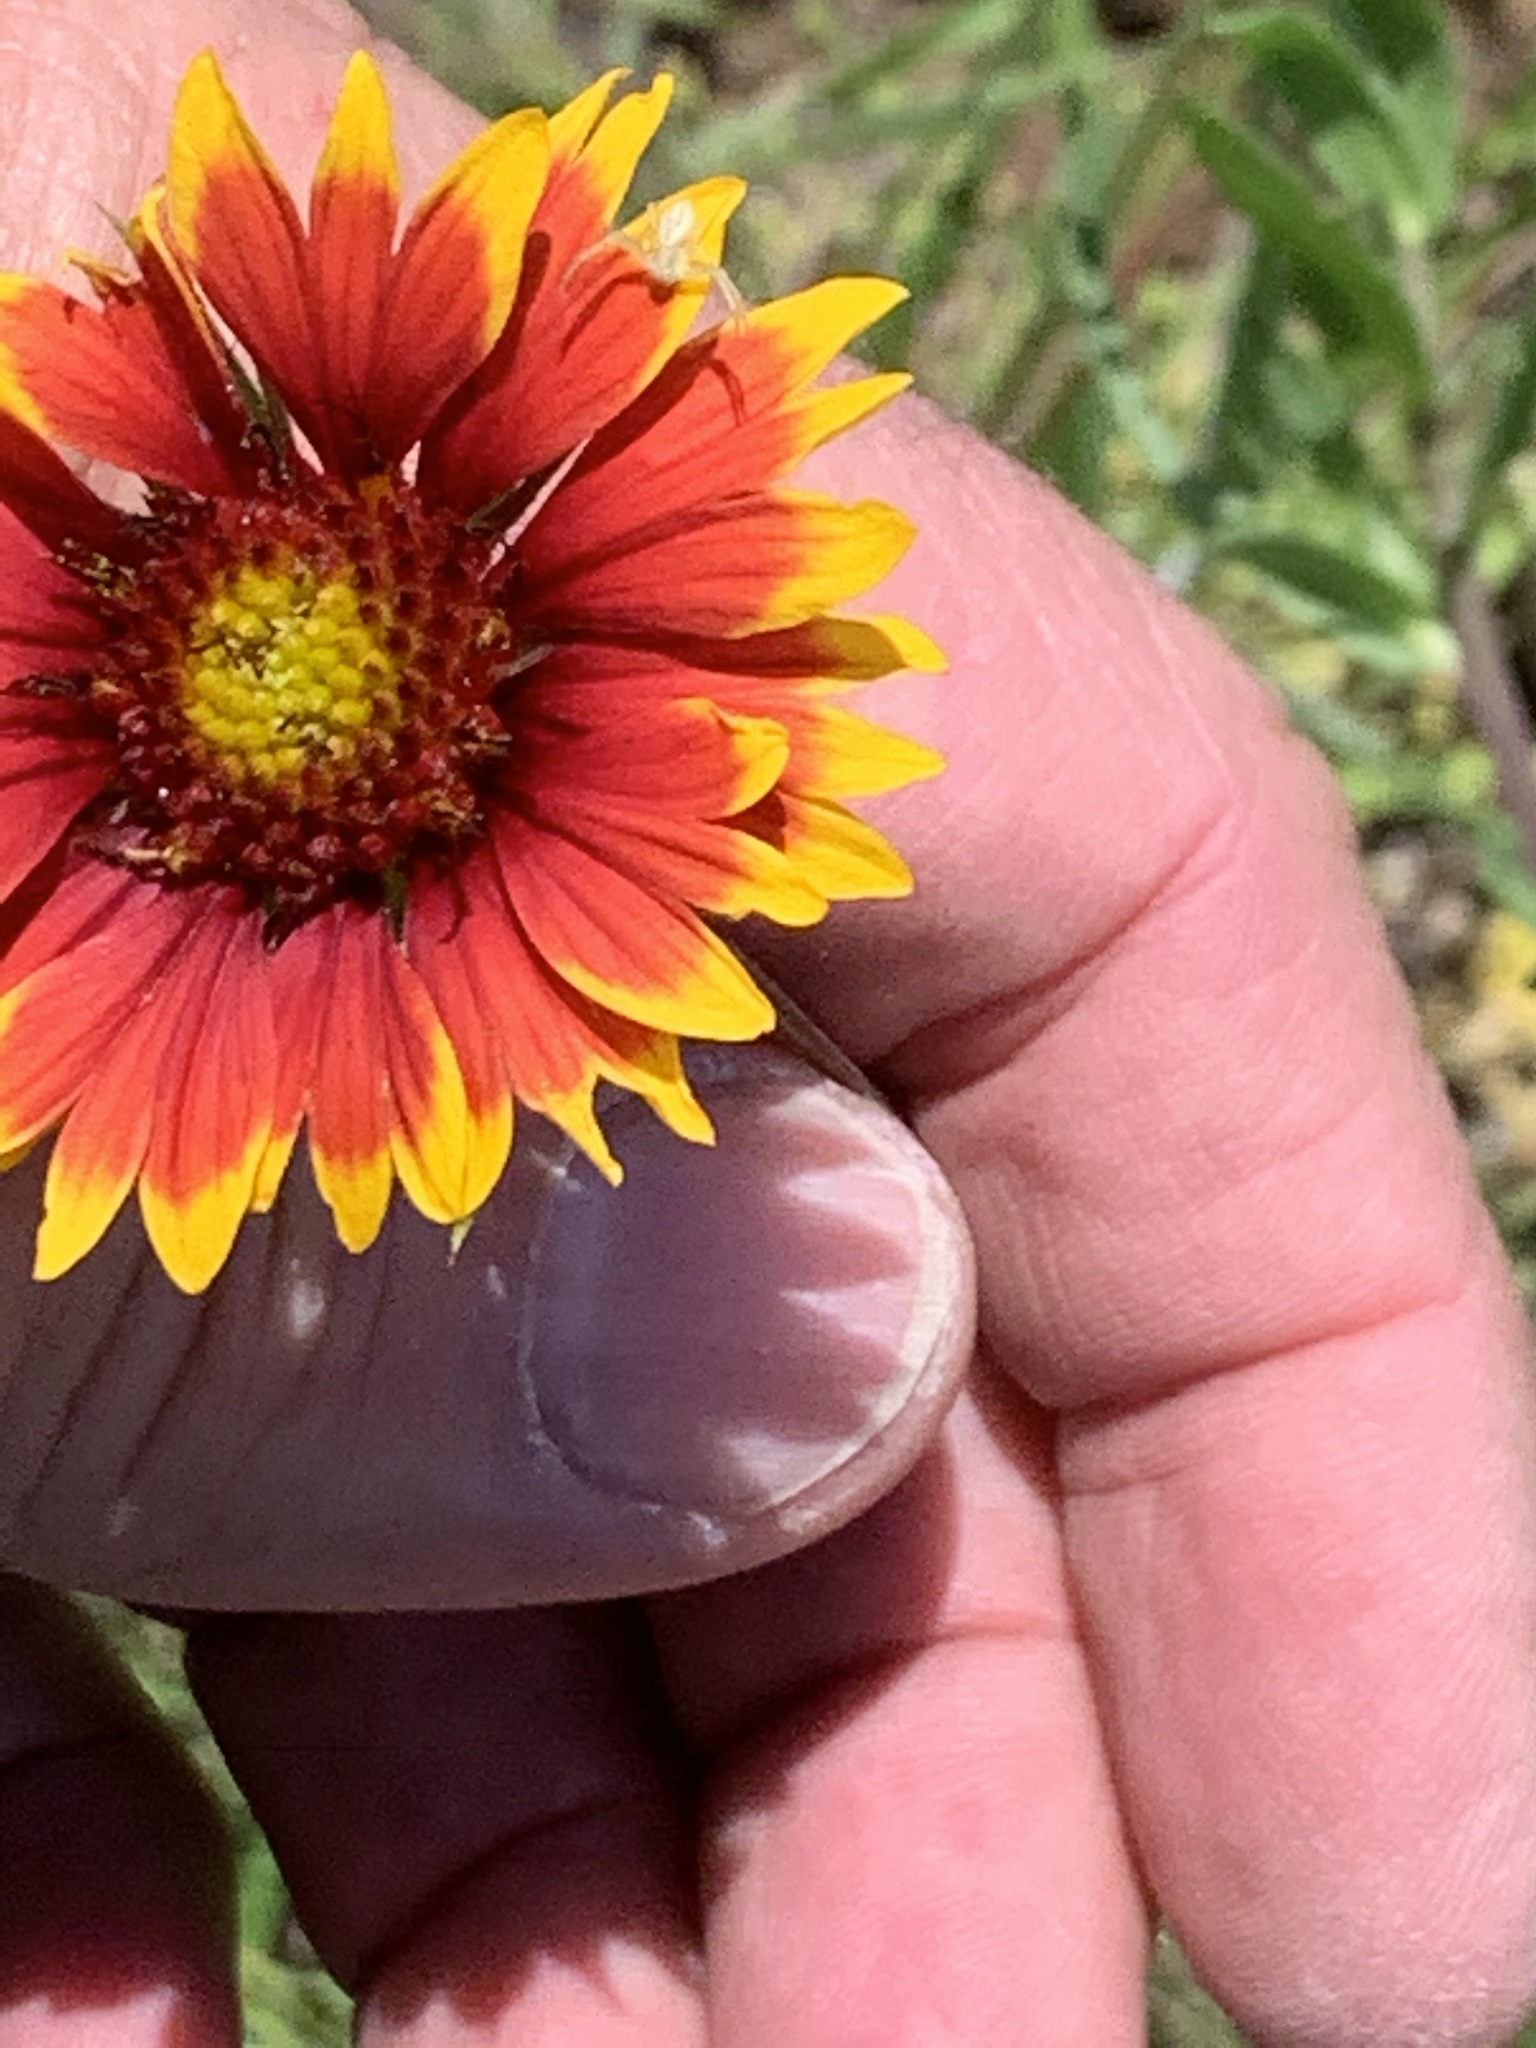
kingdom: Plantae
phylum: Tracheophyta
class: Magnoliopsida
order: Asterales
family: Asteraceae
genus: Gaillardia
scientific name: Gaillardia pulchella
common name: Firewheel
